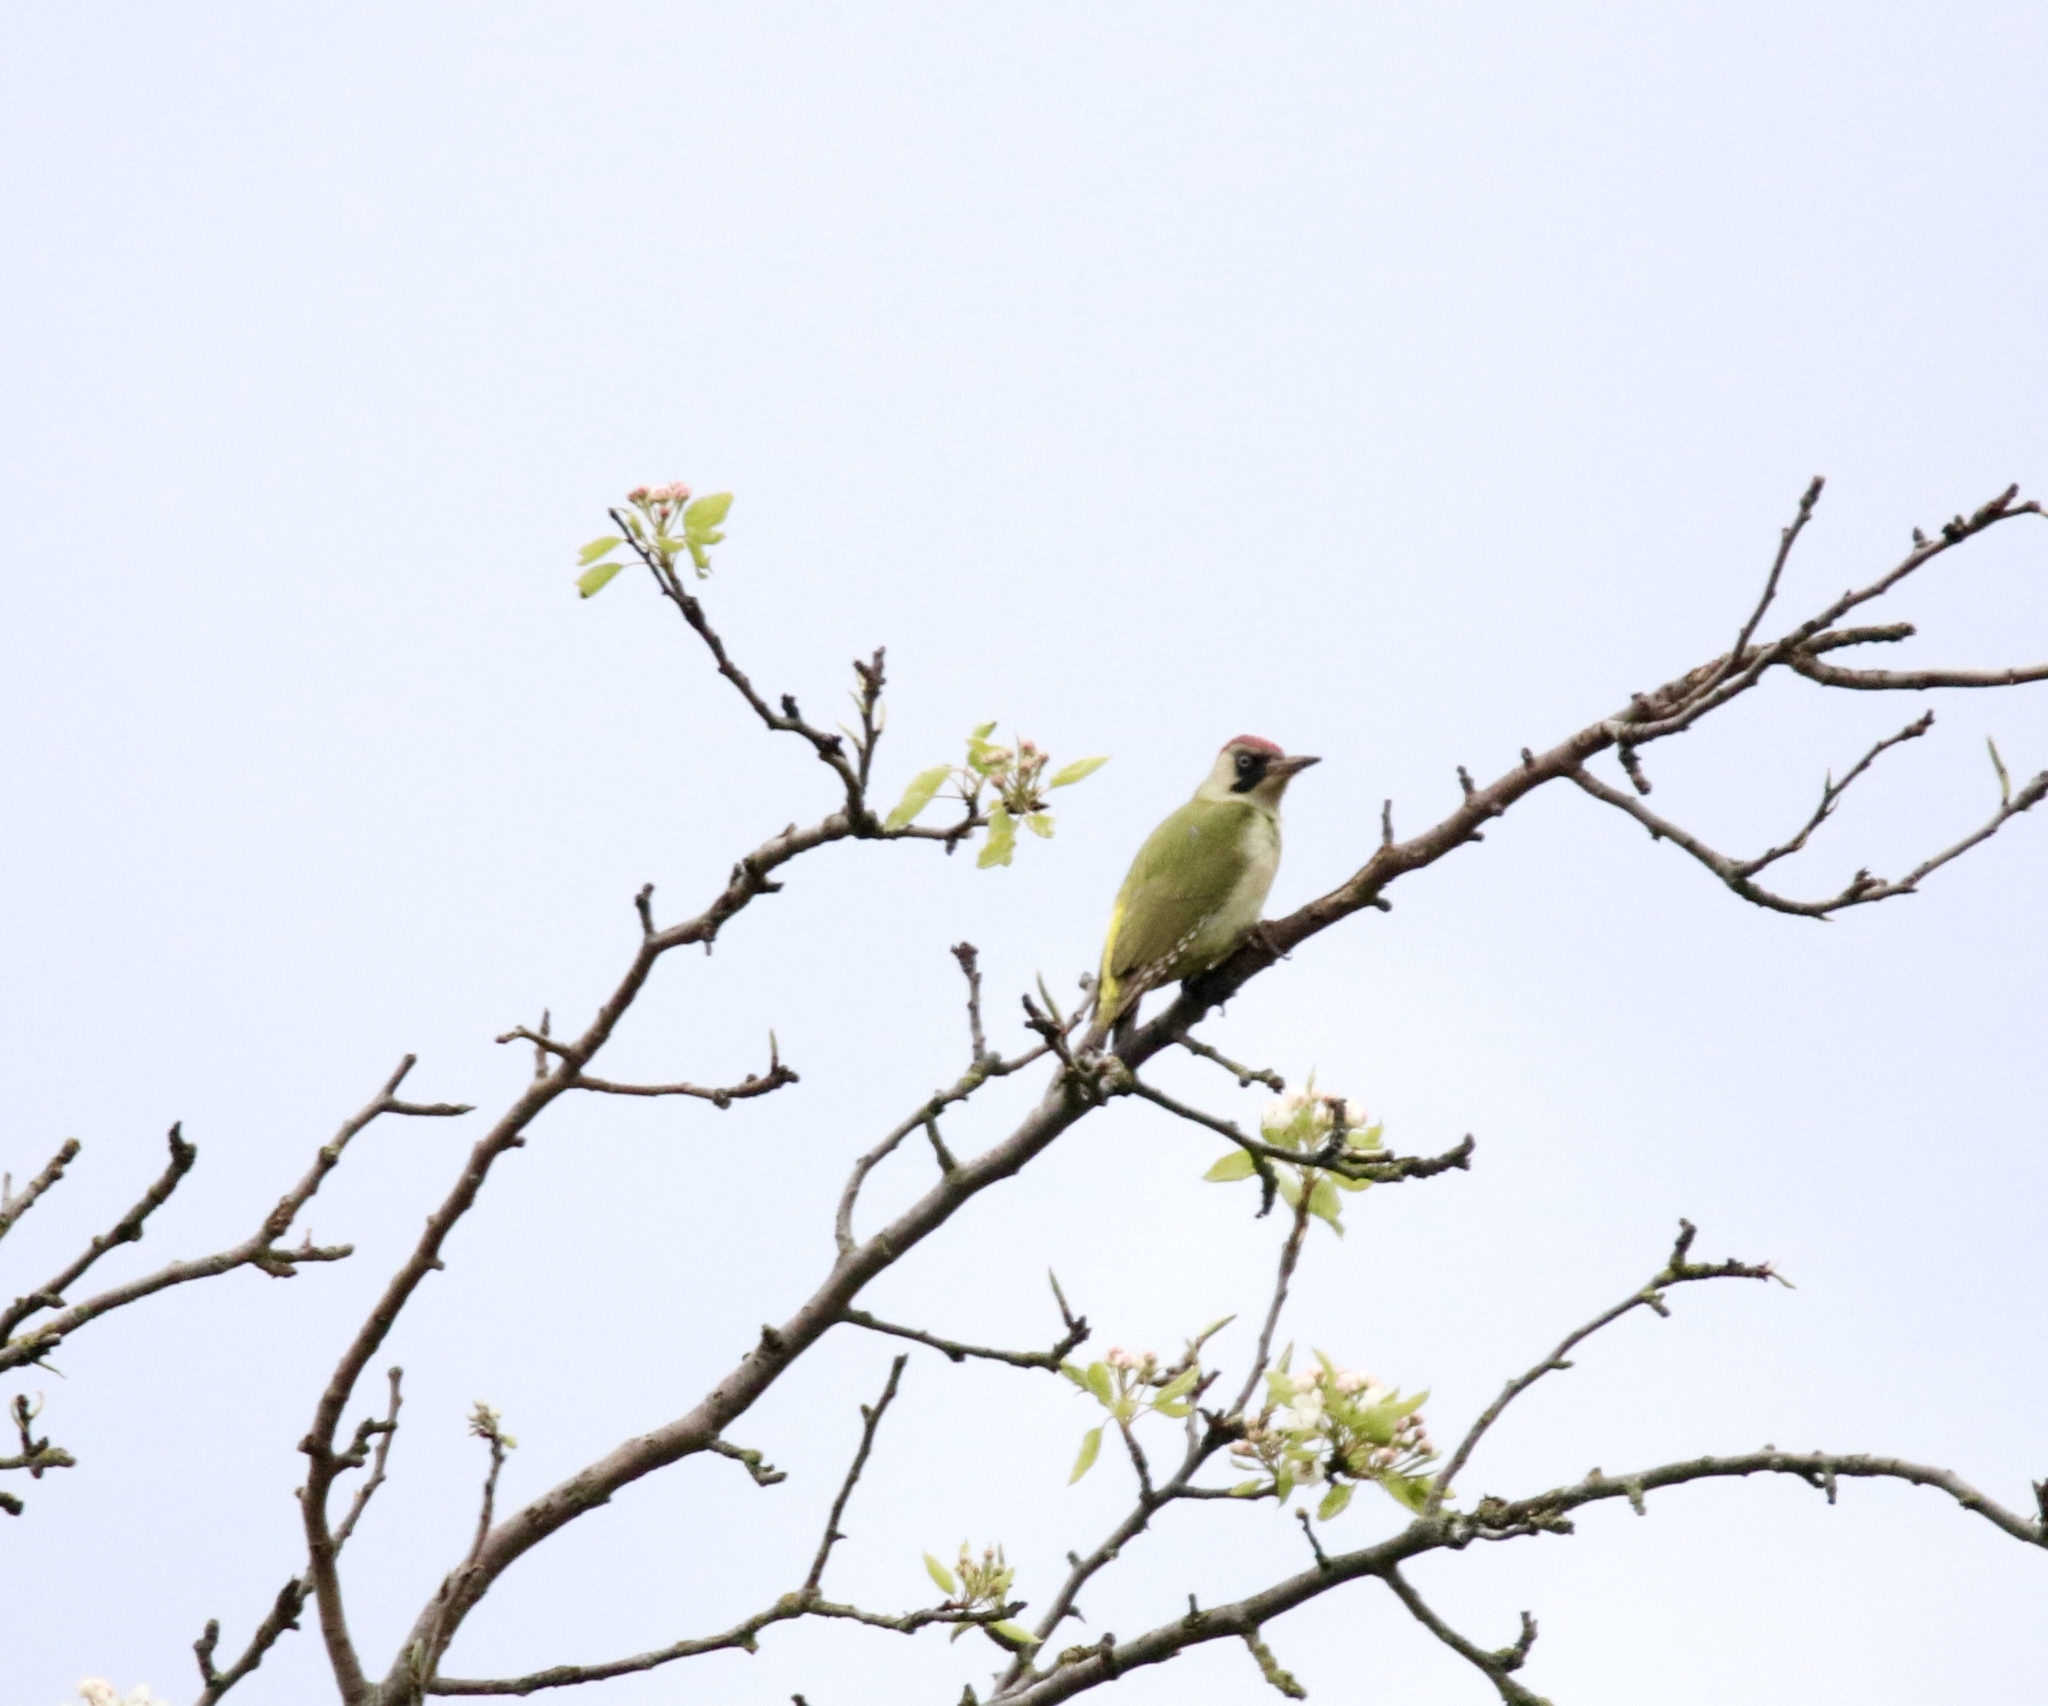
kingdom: Animalia
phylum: Chordata
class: Aves
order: Piciformes
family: Picidae
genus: Picus
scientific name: Picus viridis
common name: European green woodpecker
